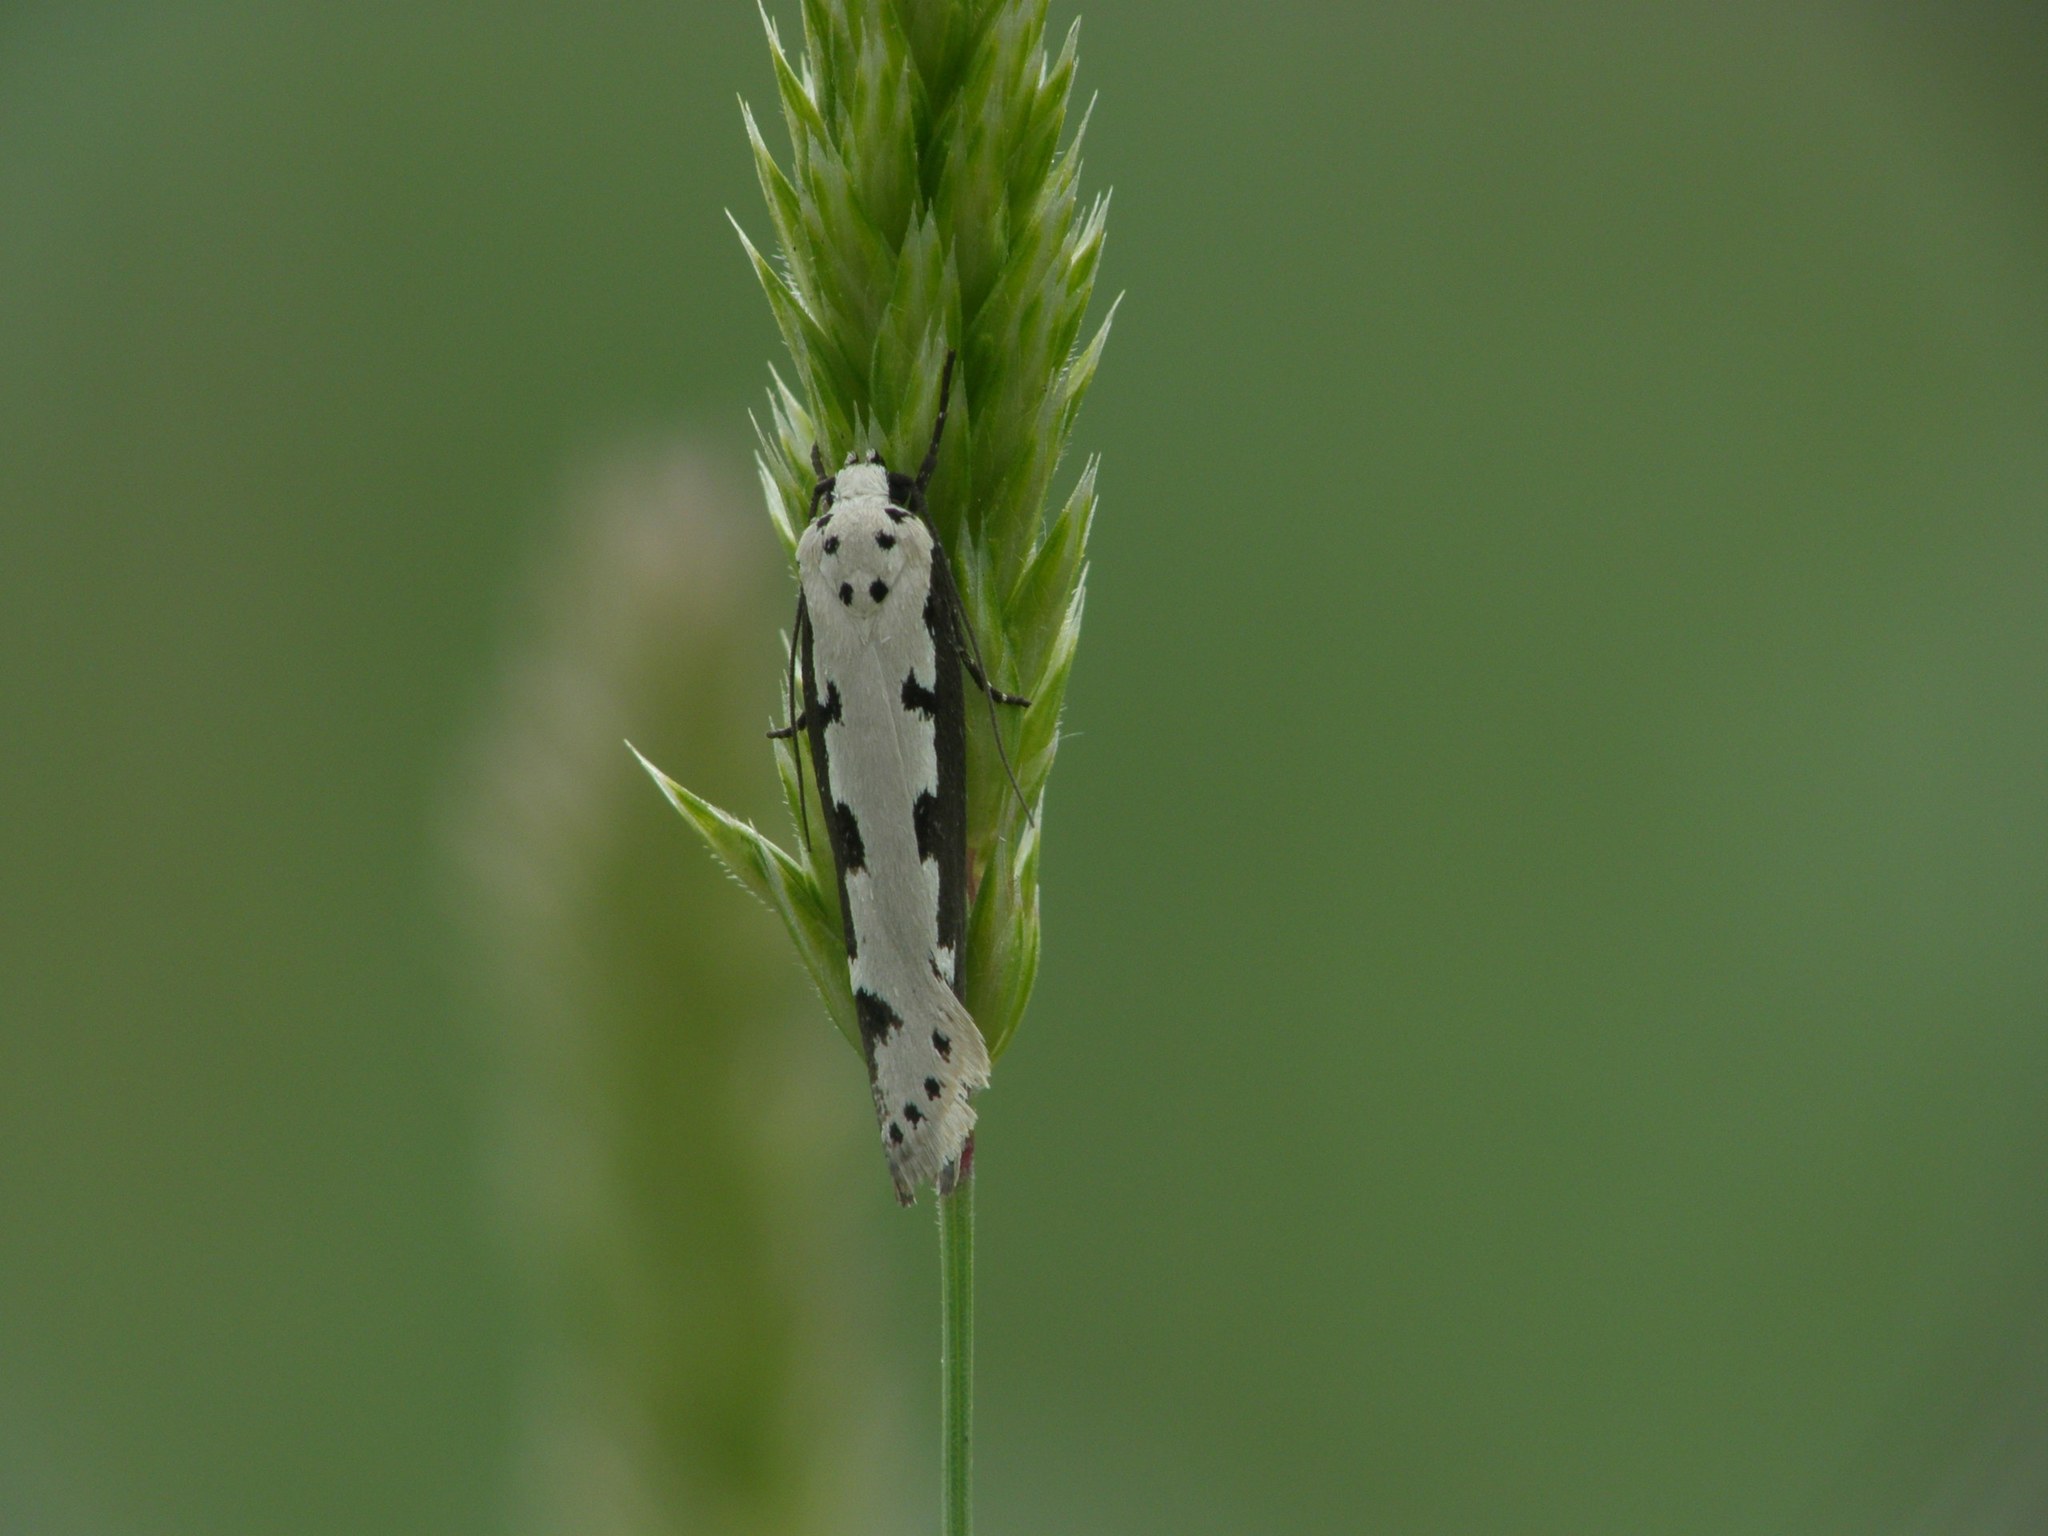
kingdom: Animalia
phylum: Arthropoda
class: Insecta
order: Lepidoptera
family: Ethmiidae
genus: Ethmia
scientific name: Ethmia bipunctella
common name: Bordered ermel
